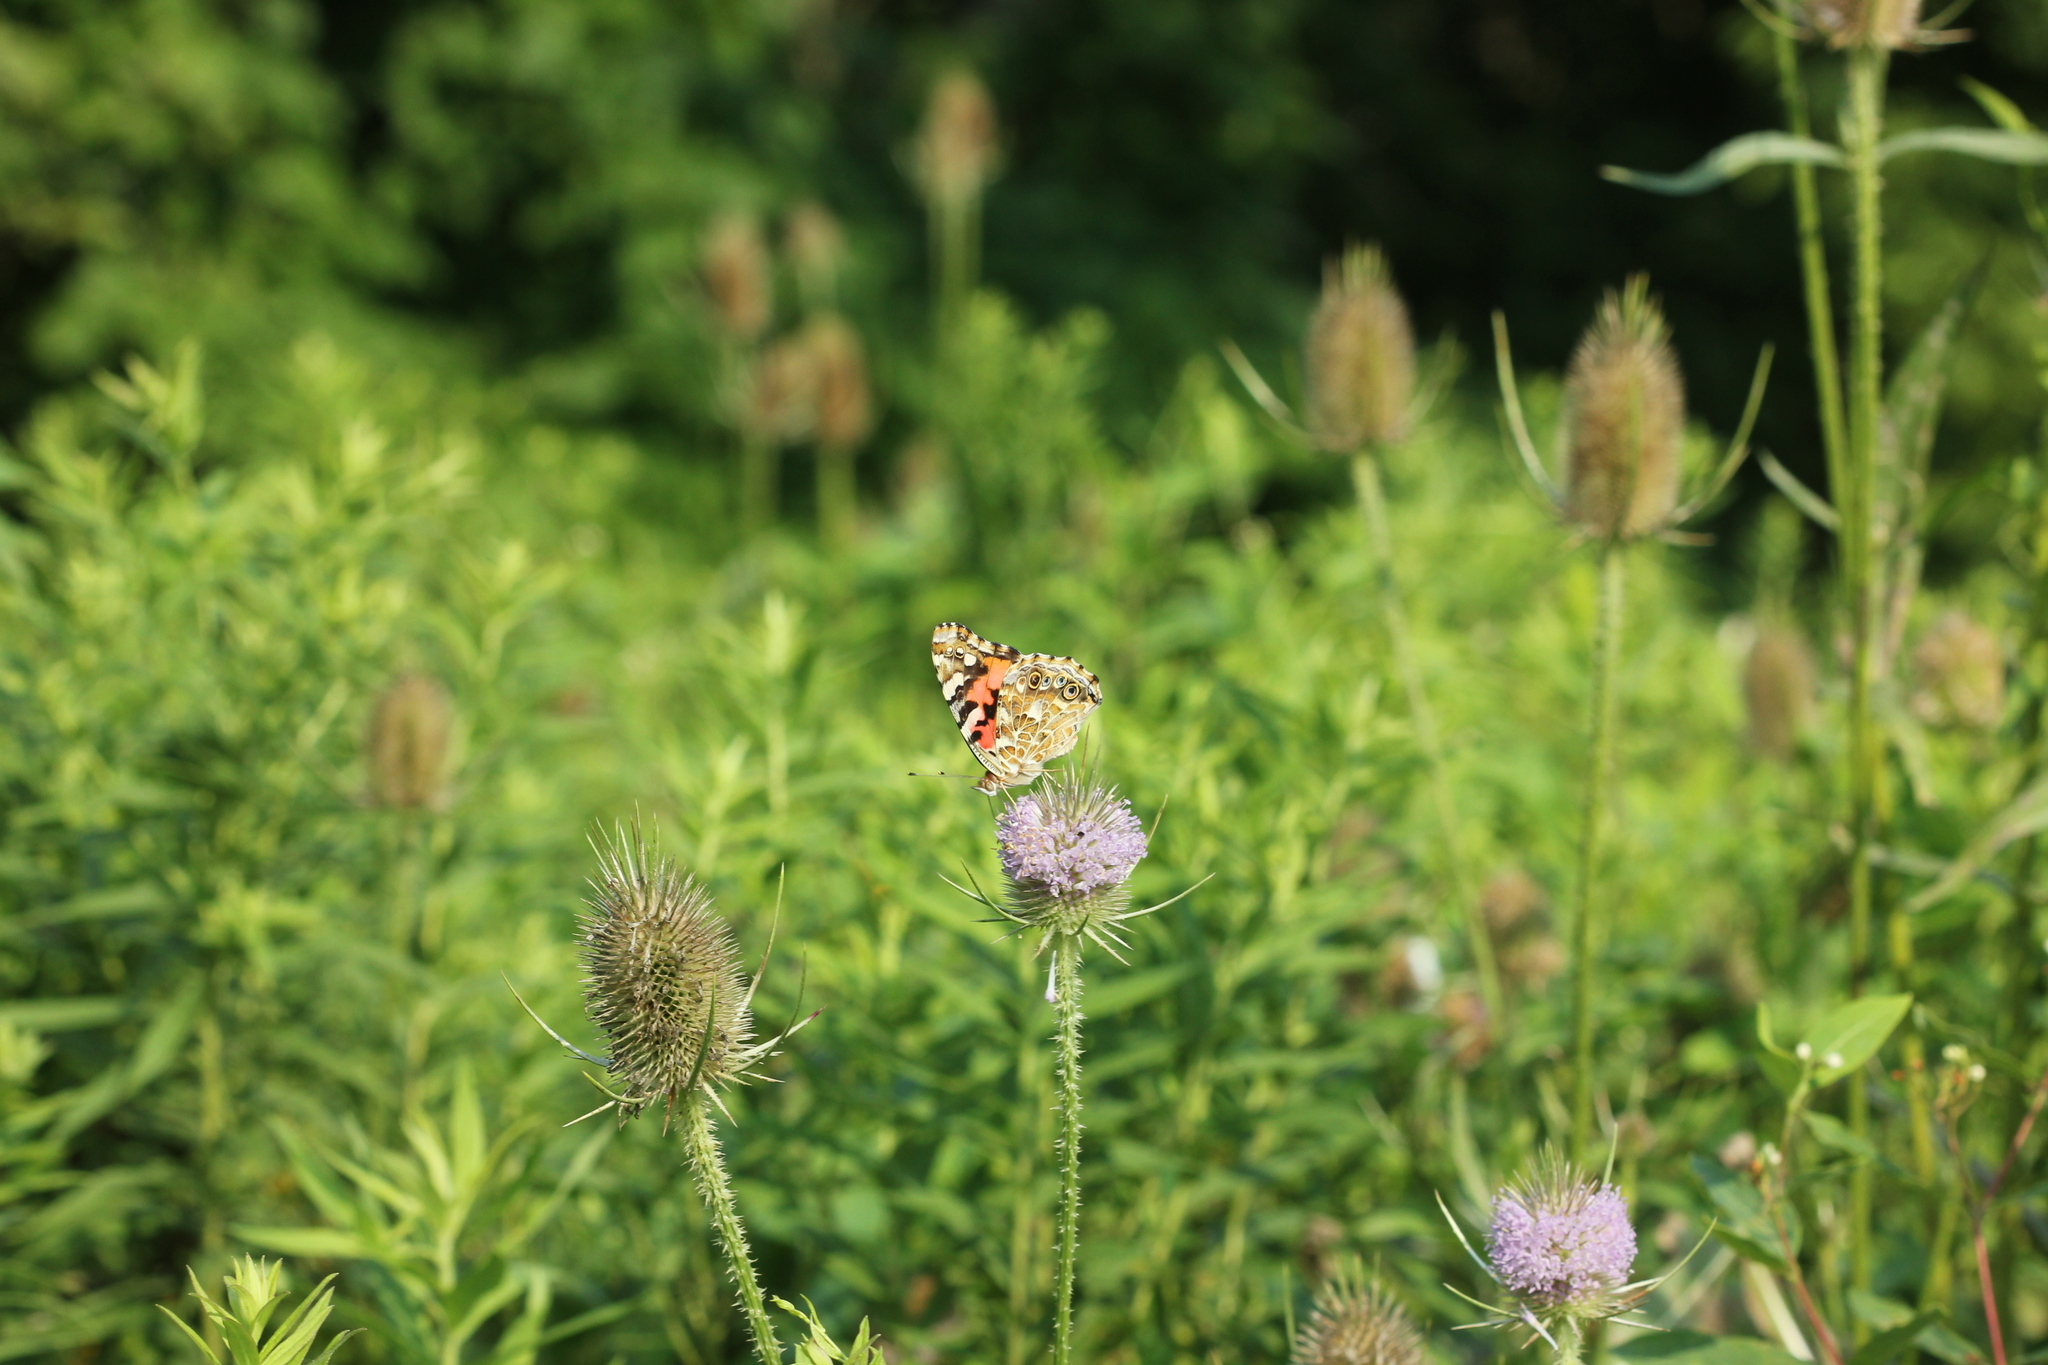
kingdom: Animalia
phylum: Arthropoda
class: Insecta
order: Lepidoptera
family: Nymphalidae
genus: Vanessa
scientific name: Vanessa cardui
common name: Painted lady
